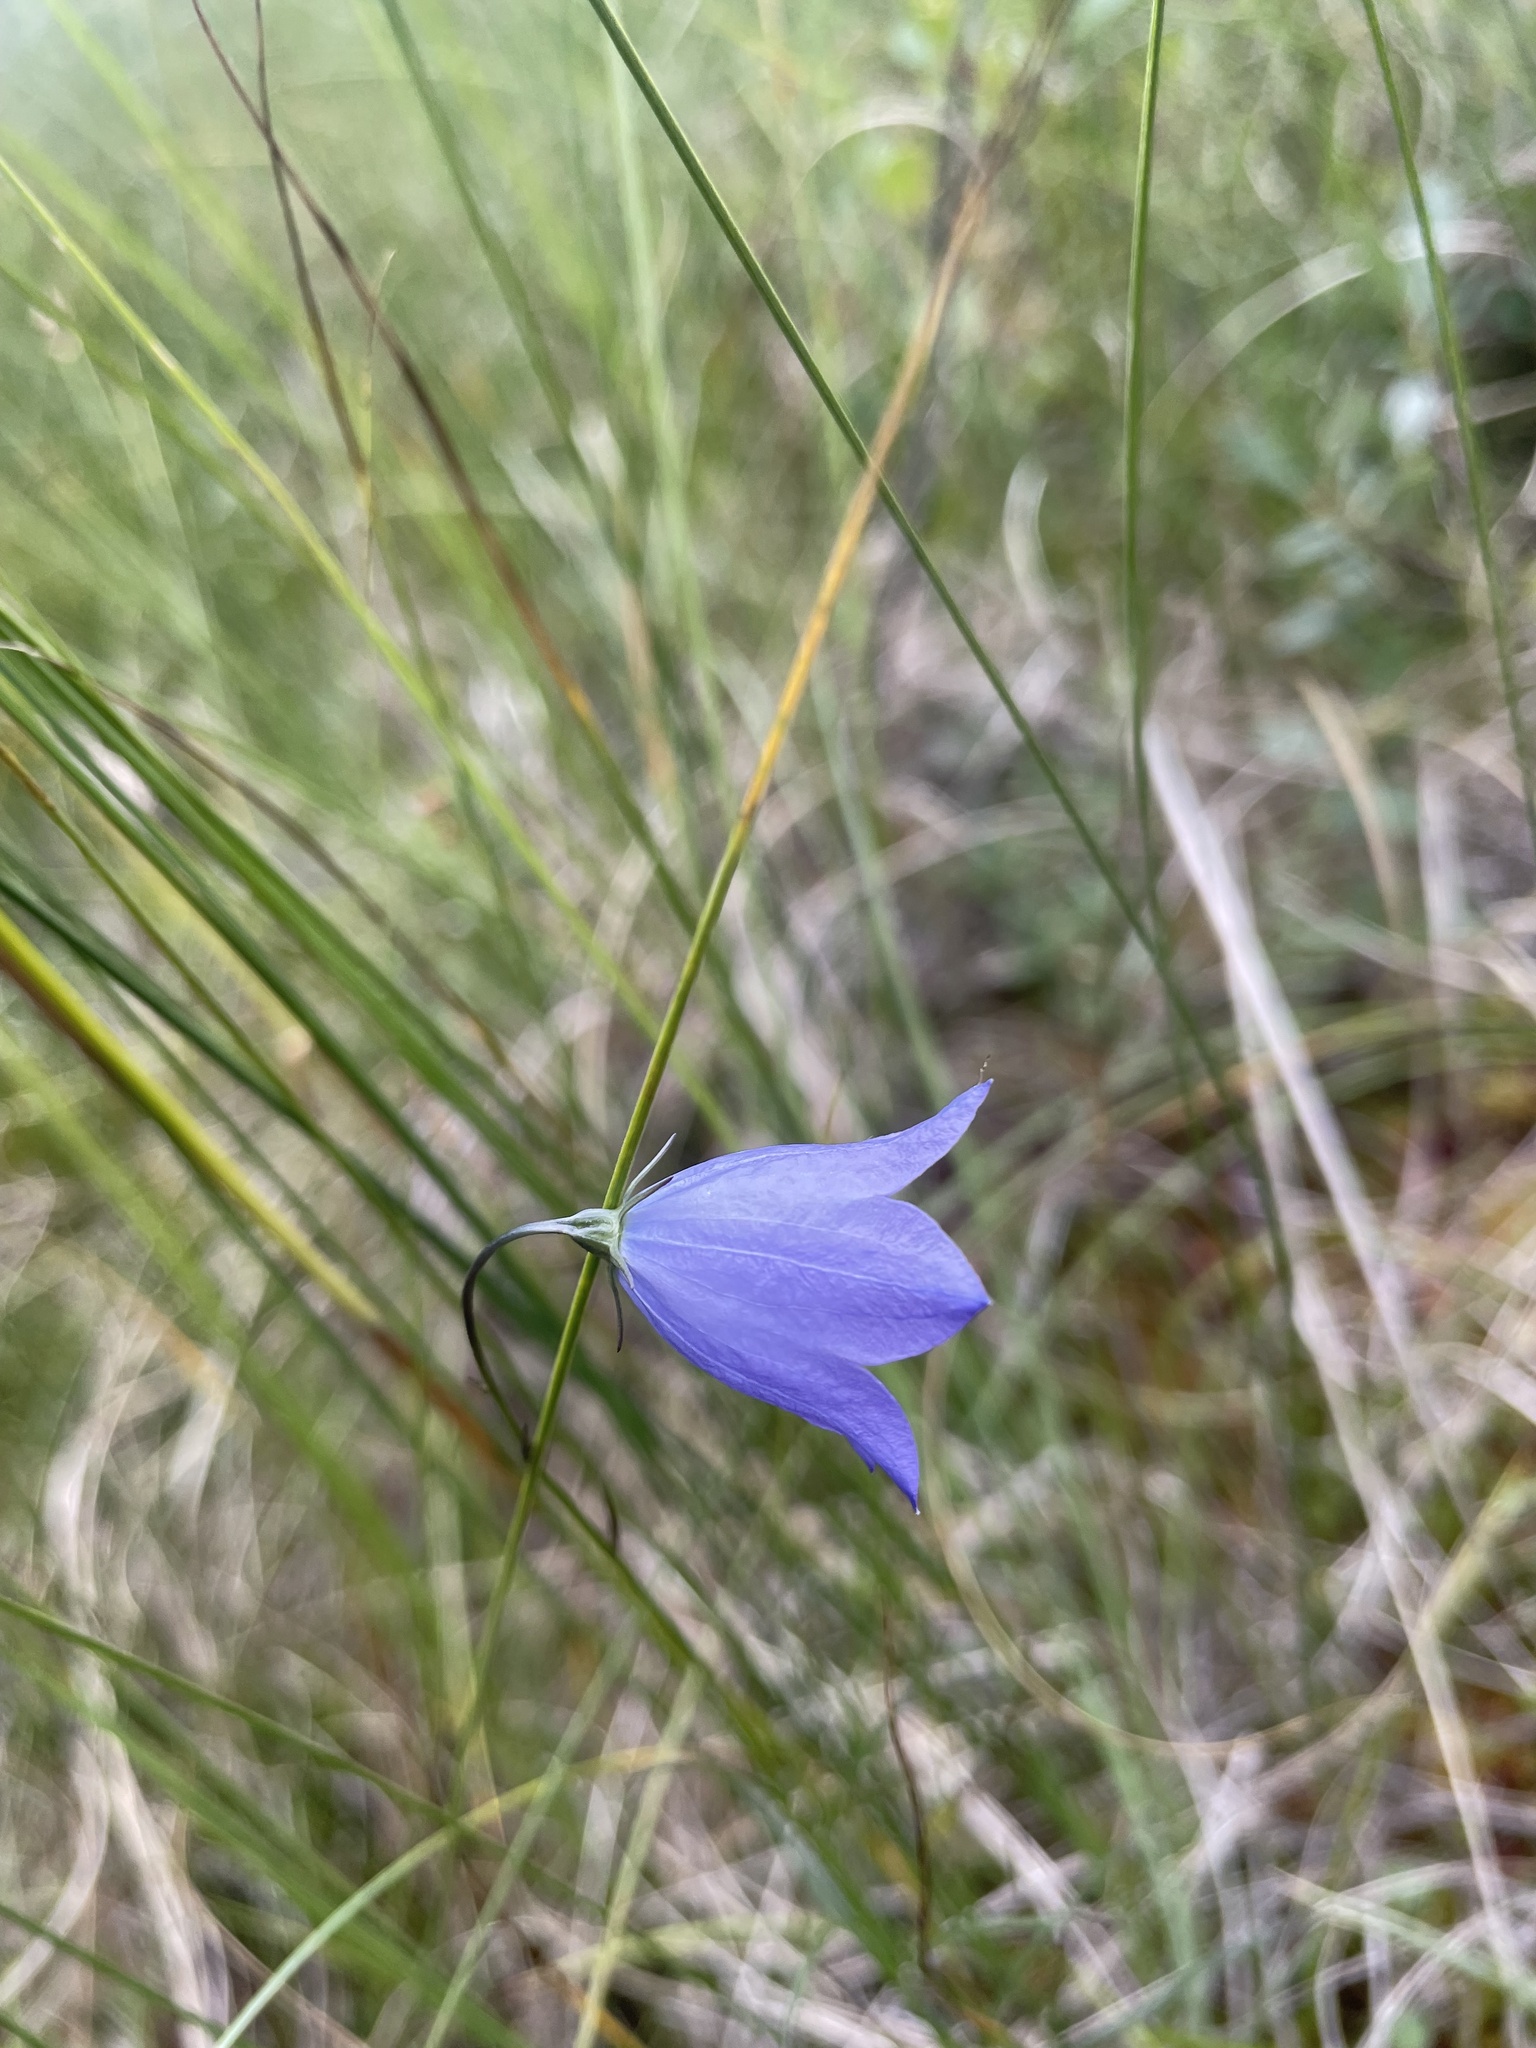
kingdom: Plantae
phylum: Tracheophyta
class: Magnoliopsida
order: Asterales
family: Campanulaceae
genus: Campanula
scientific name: Campanula alaskana
